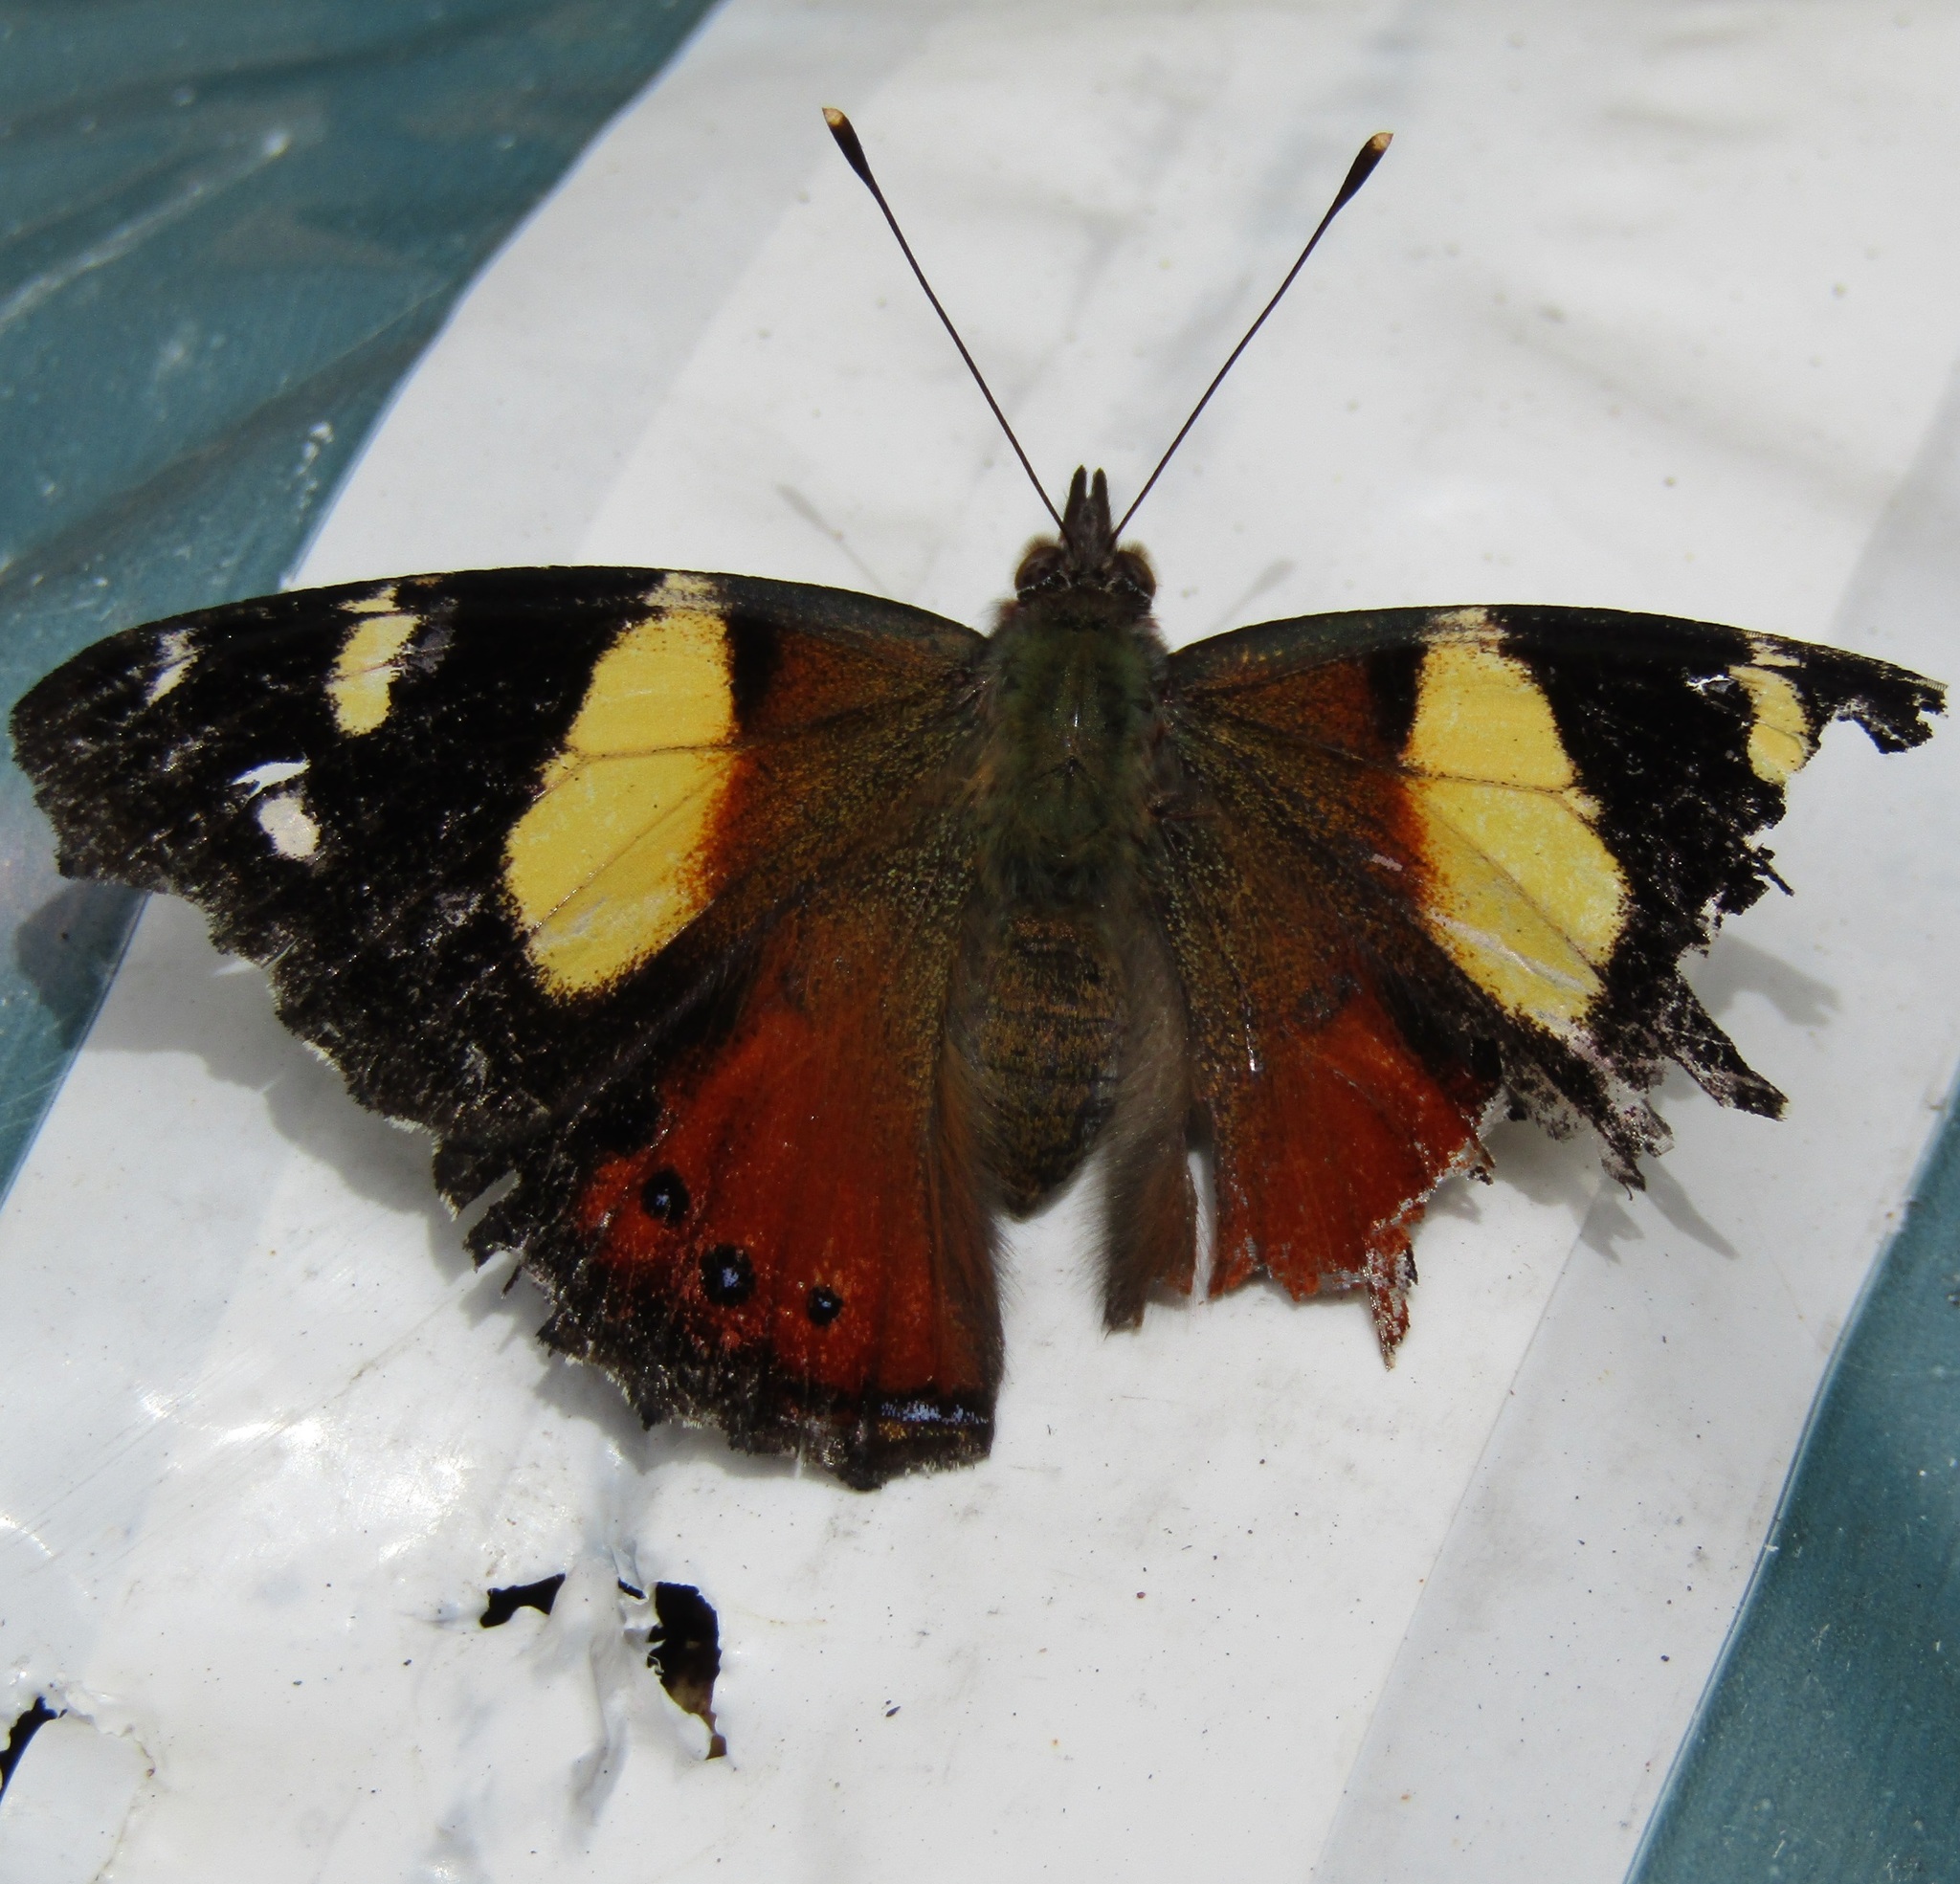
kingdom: Animalia
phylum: Arthropoda
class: Insecta
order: Lepidoptera
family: Nymphalidae
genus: Vanessa
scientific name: Vanessa itea
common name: Yellow admiral
